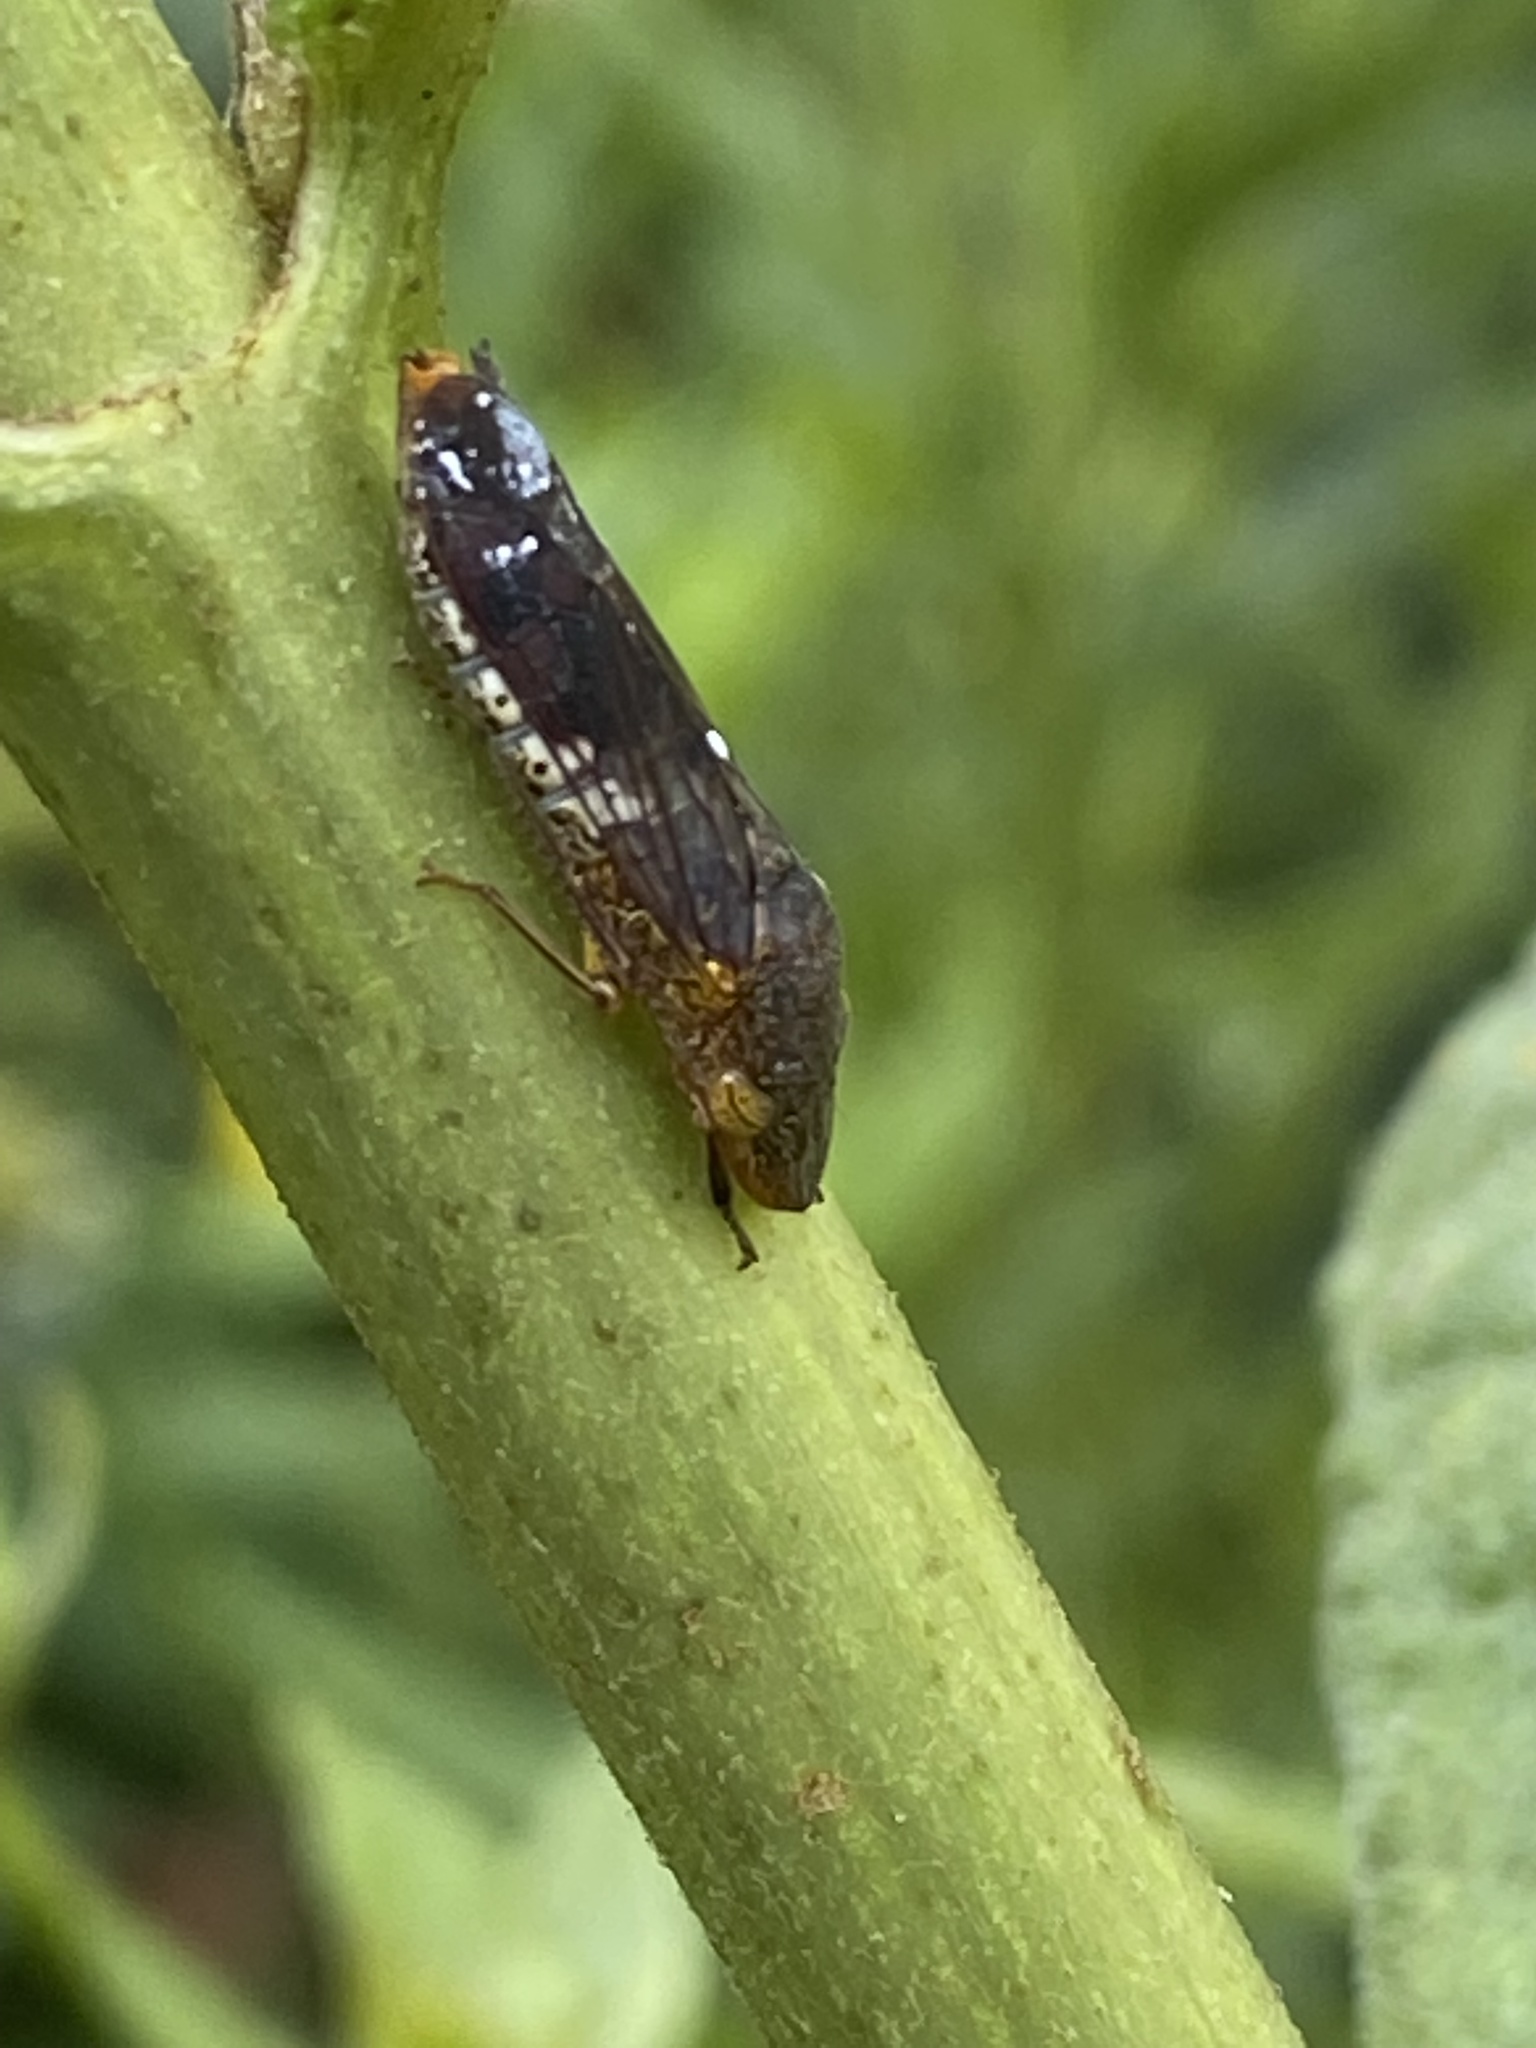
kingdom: Animalia
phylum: Arthropoda
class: Insecta
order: Hemiptera
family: Cicadellidae
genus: Homalodisca
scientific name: Homalodisca vitripennis
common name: Glassy-winged sharpshooter
